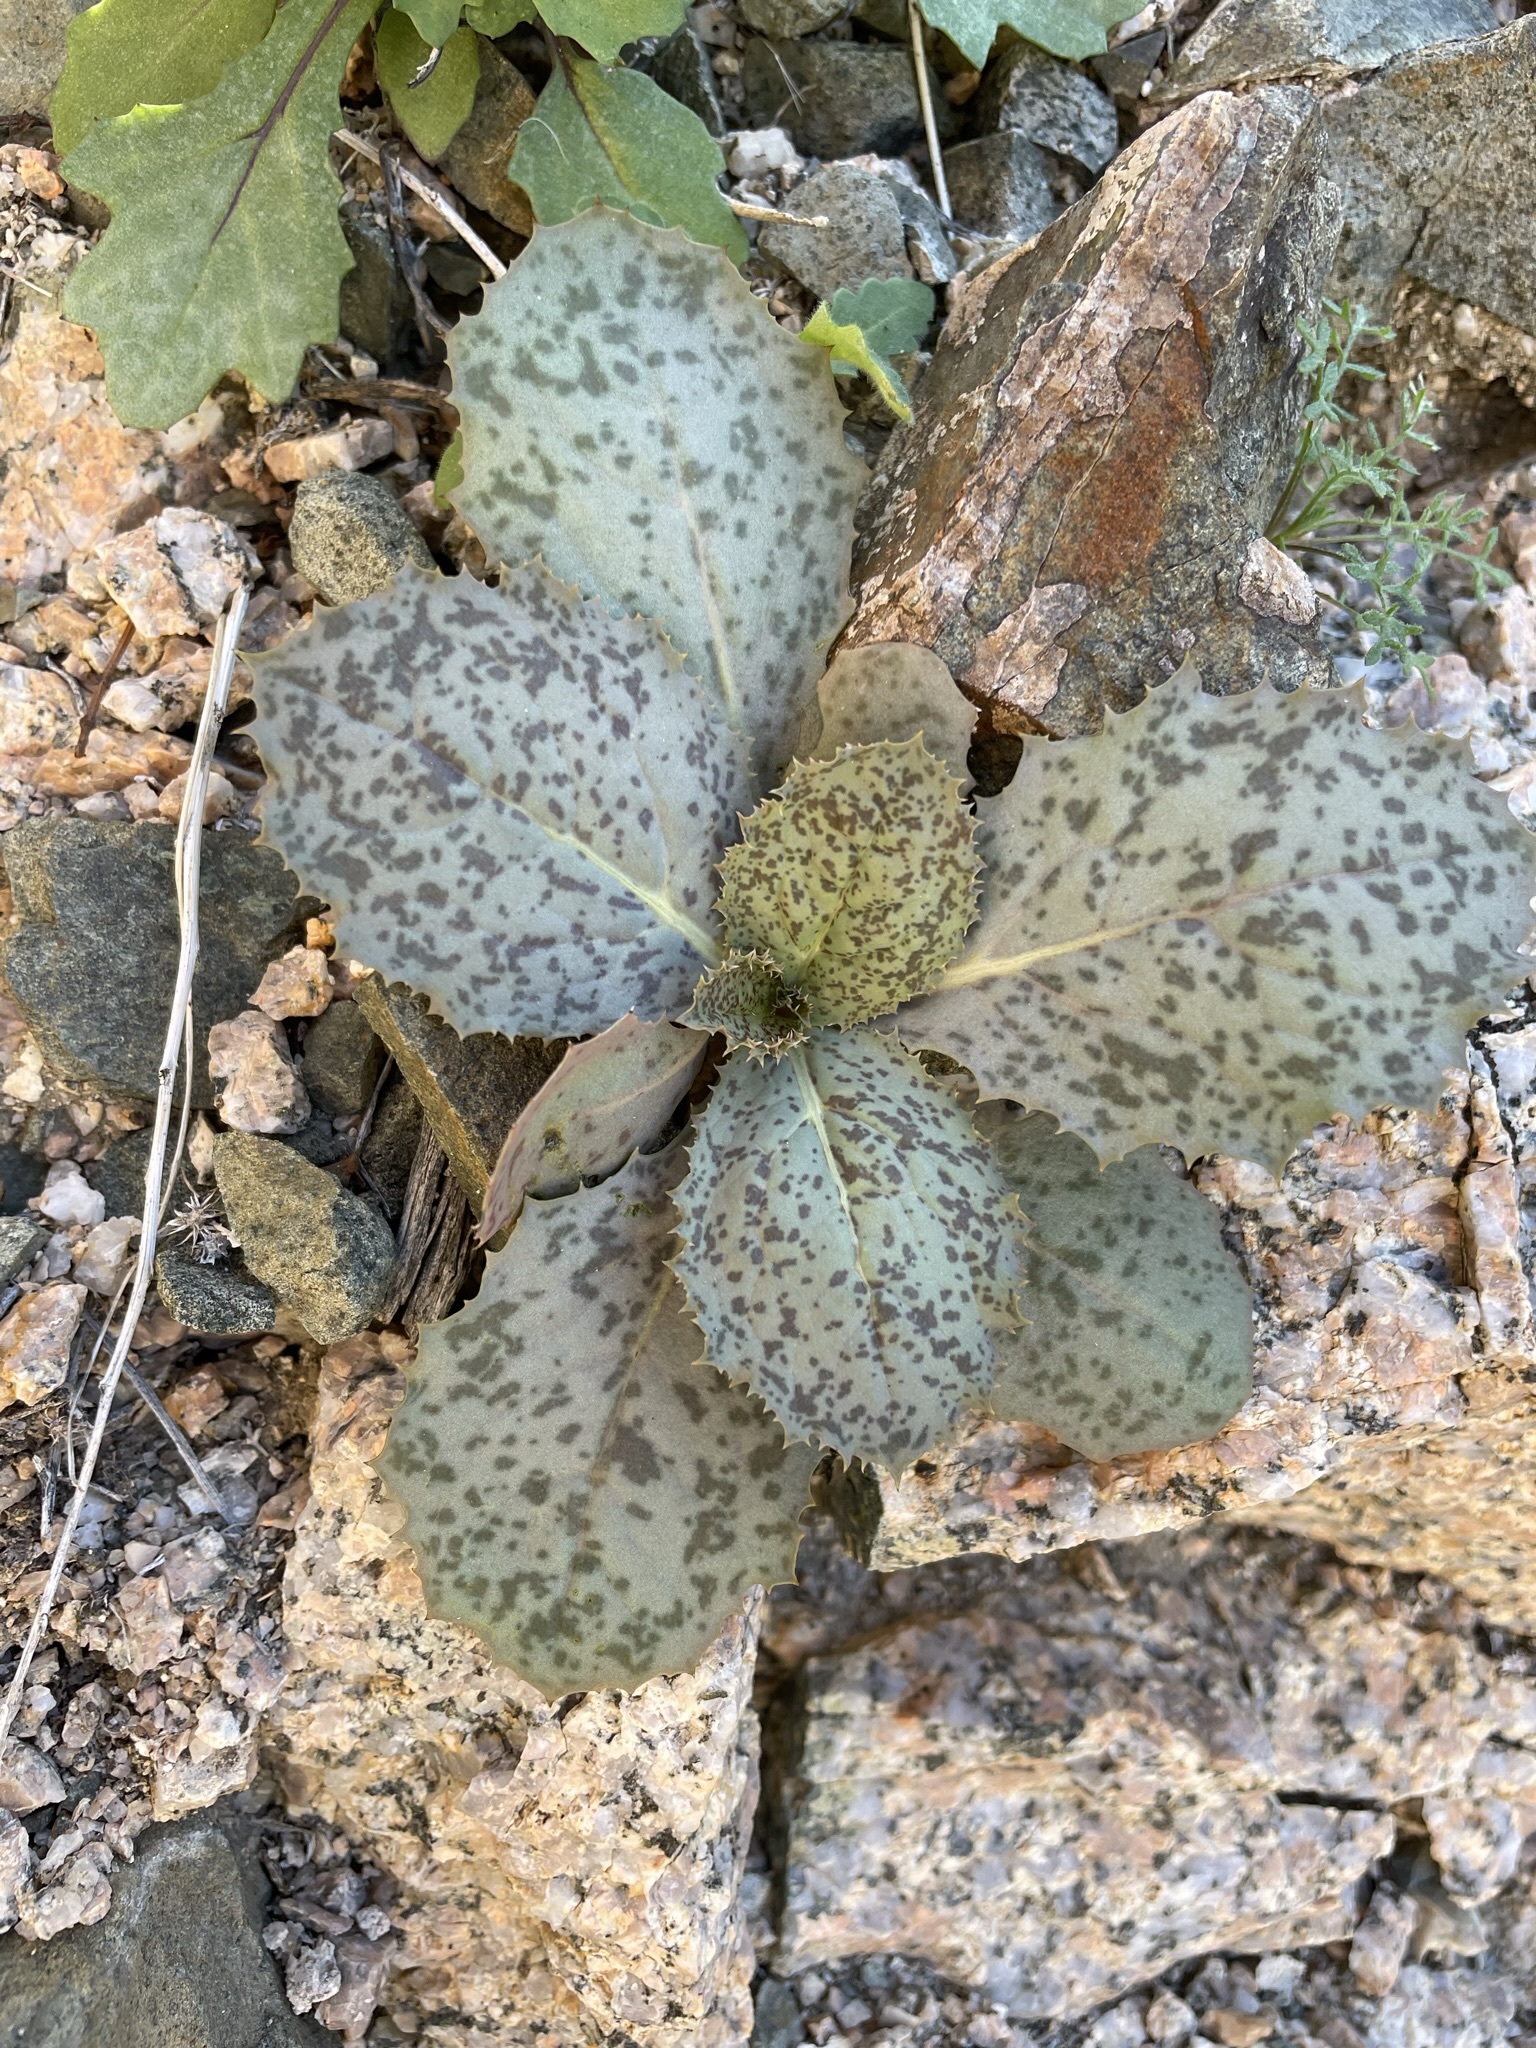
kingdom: Plantae
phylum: Tracheophyta
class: Magnoliopsida
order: Asterales
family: Asteraceae
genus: Atrichoseris
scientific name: Atrichoseris platyphylla
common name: Tobaccoweed
